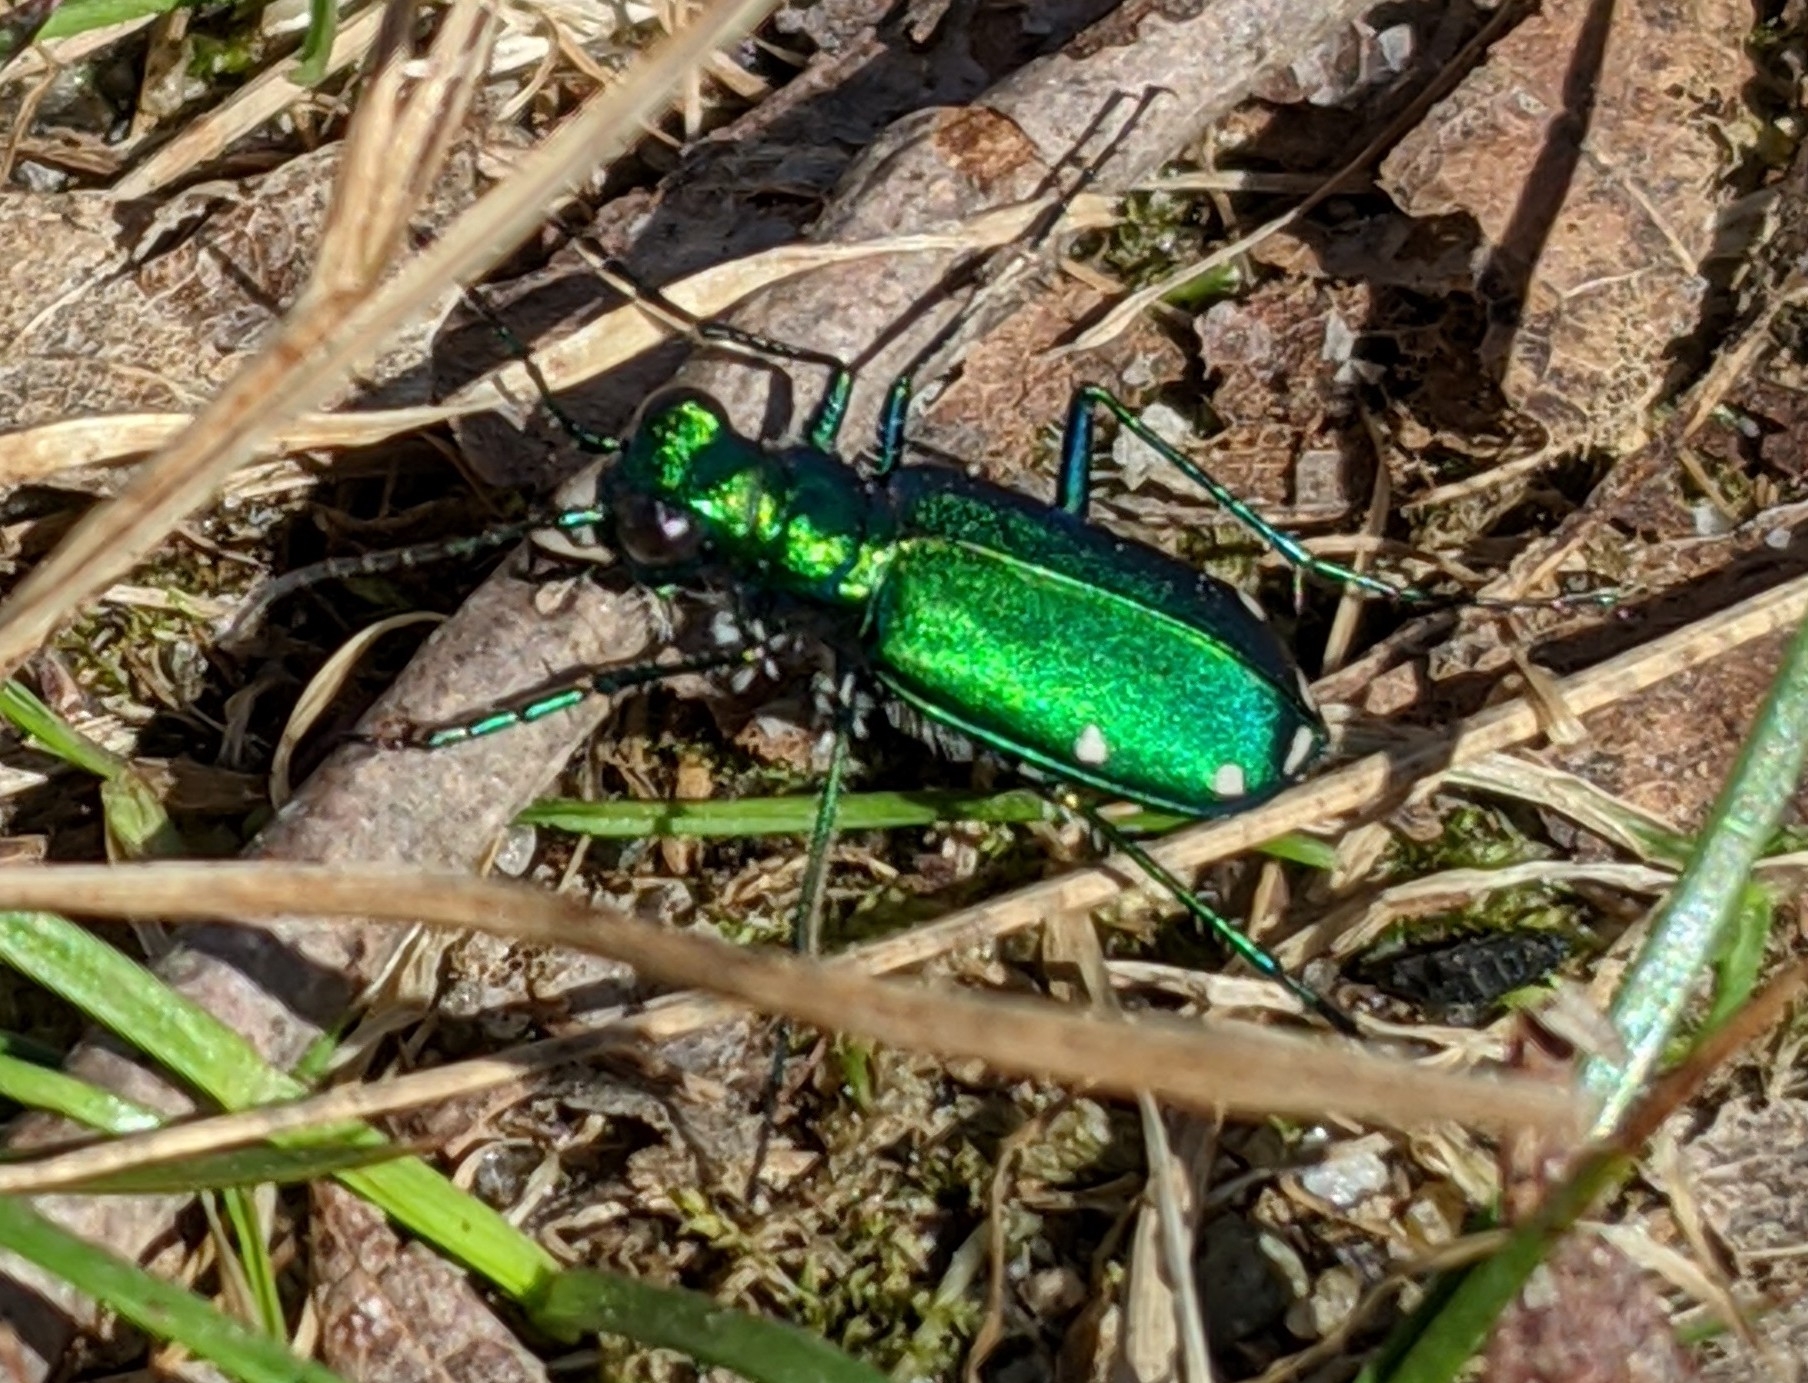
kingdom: Animalia
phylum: Arthropoda
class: Insecta
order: Coleoptera
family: Carabidae
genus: Cicindela
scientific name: Cicindela sexguttata
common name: Six-spotted tiger beetle
